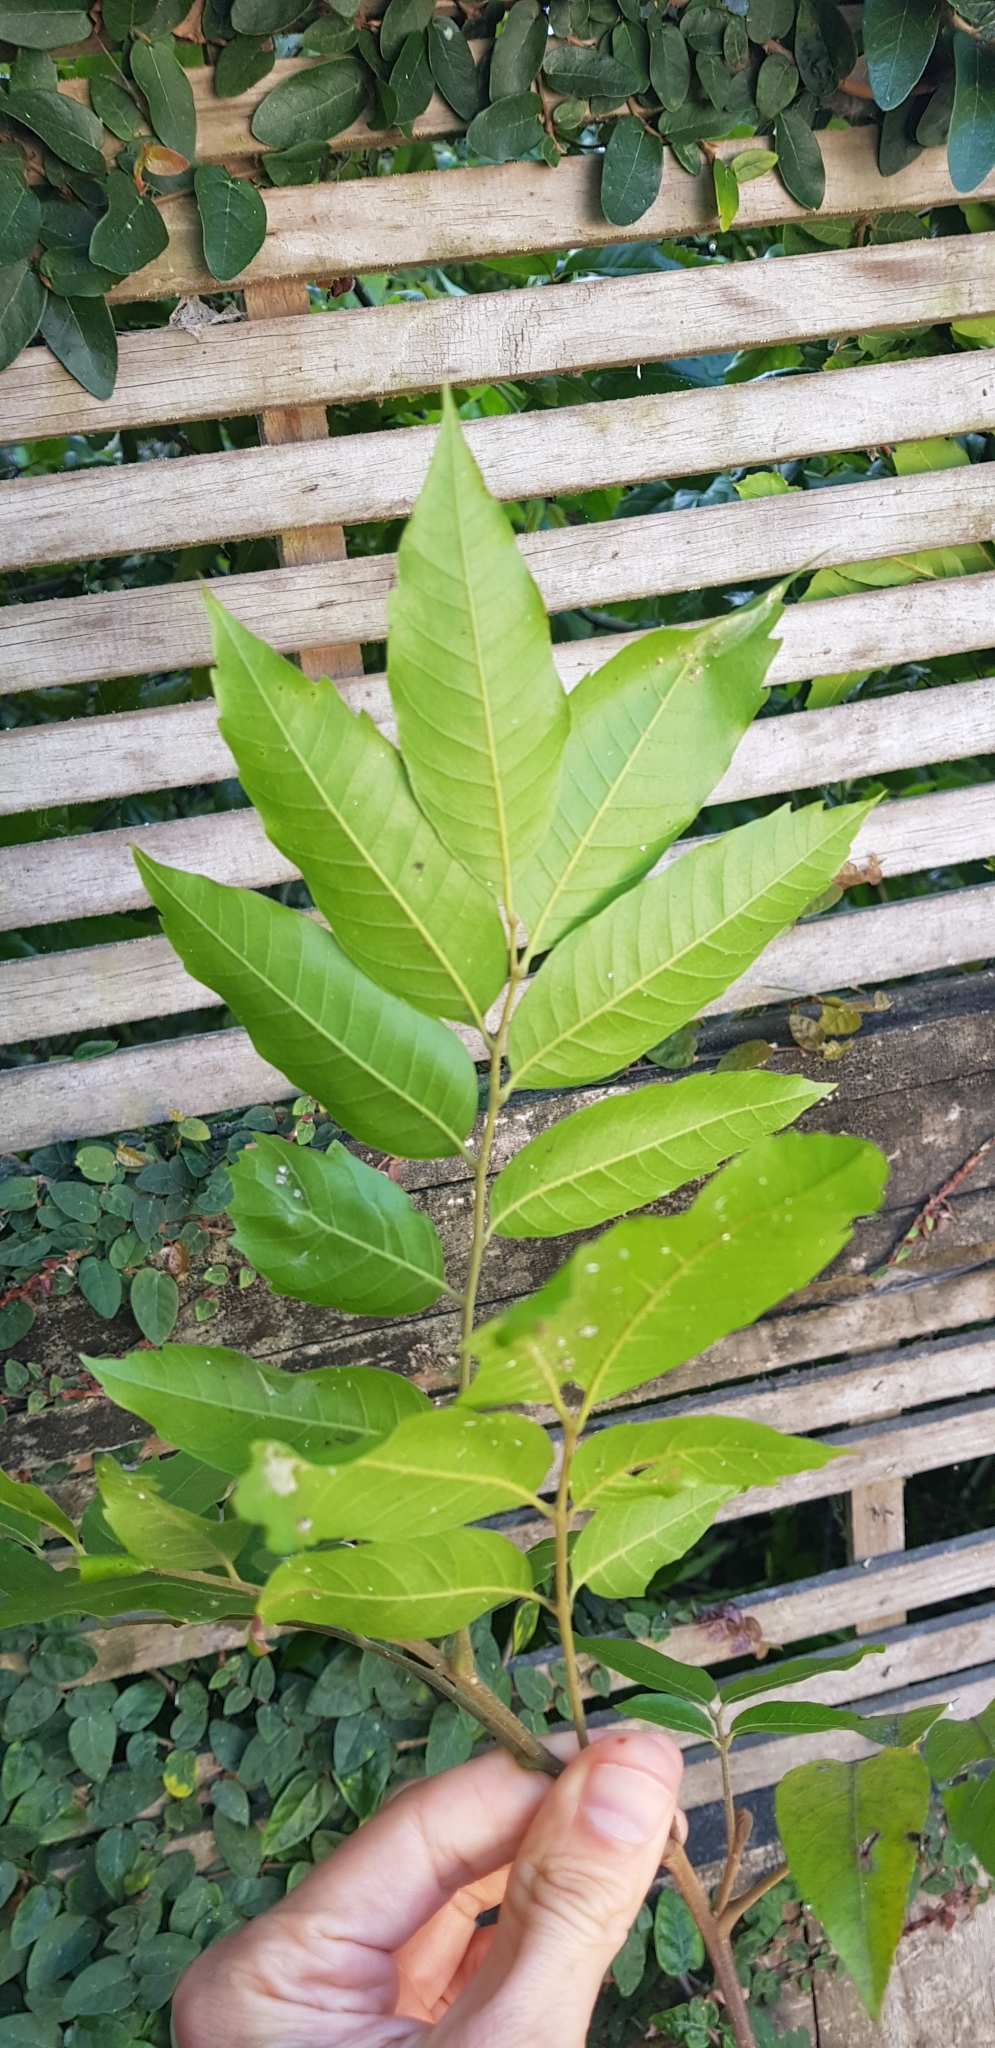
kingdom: Plantae
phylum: Tracheophyta
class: Magnoliopsida
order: Sapindales
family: Sapindaceae
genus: Alectryon
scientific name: Alectryon excelsus
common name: Three kings titoki
